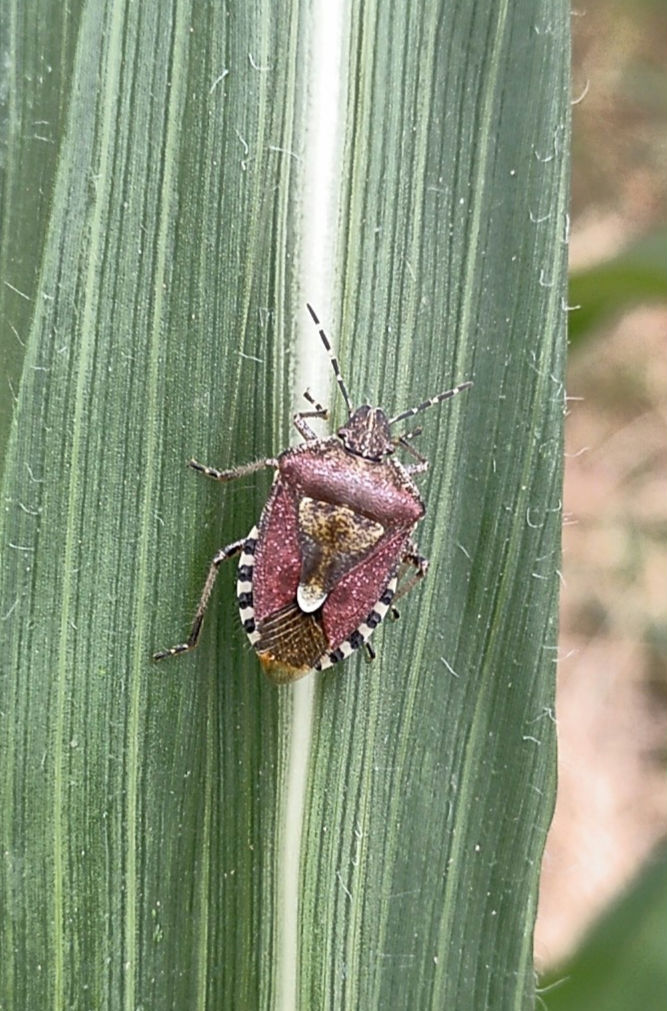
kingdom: Animalia
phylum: Arthropoda
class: Insecta
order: Hemiptera
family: Pentatomidae
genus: Dolycoris
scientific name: Dolycoris baccarum
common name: Sloe bug
